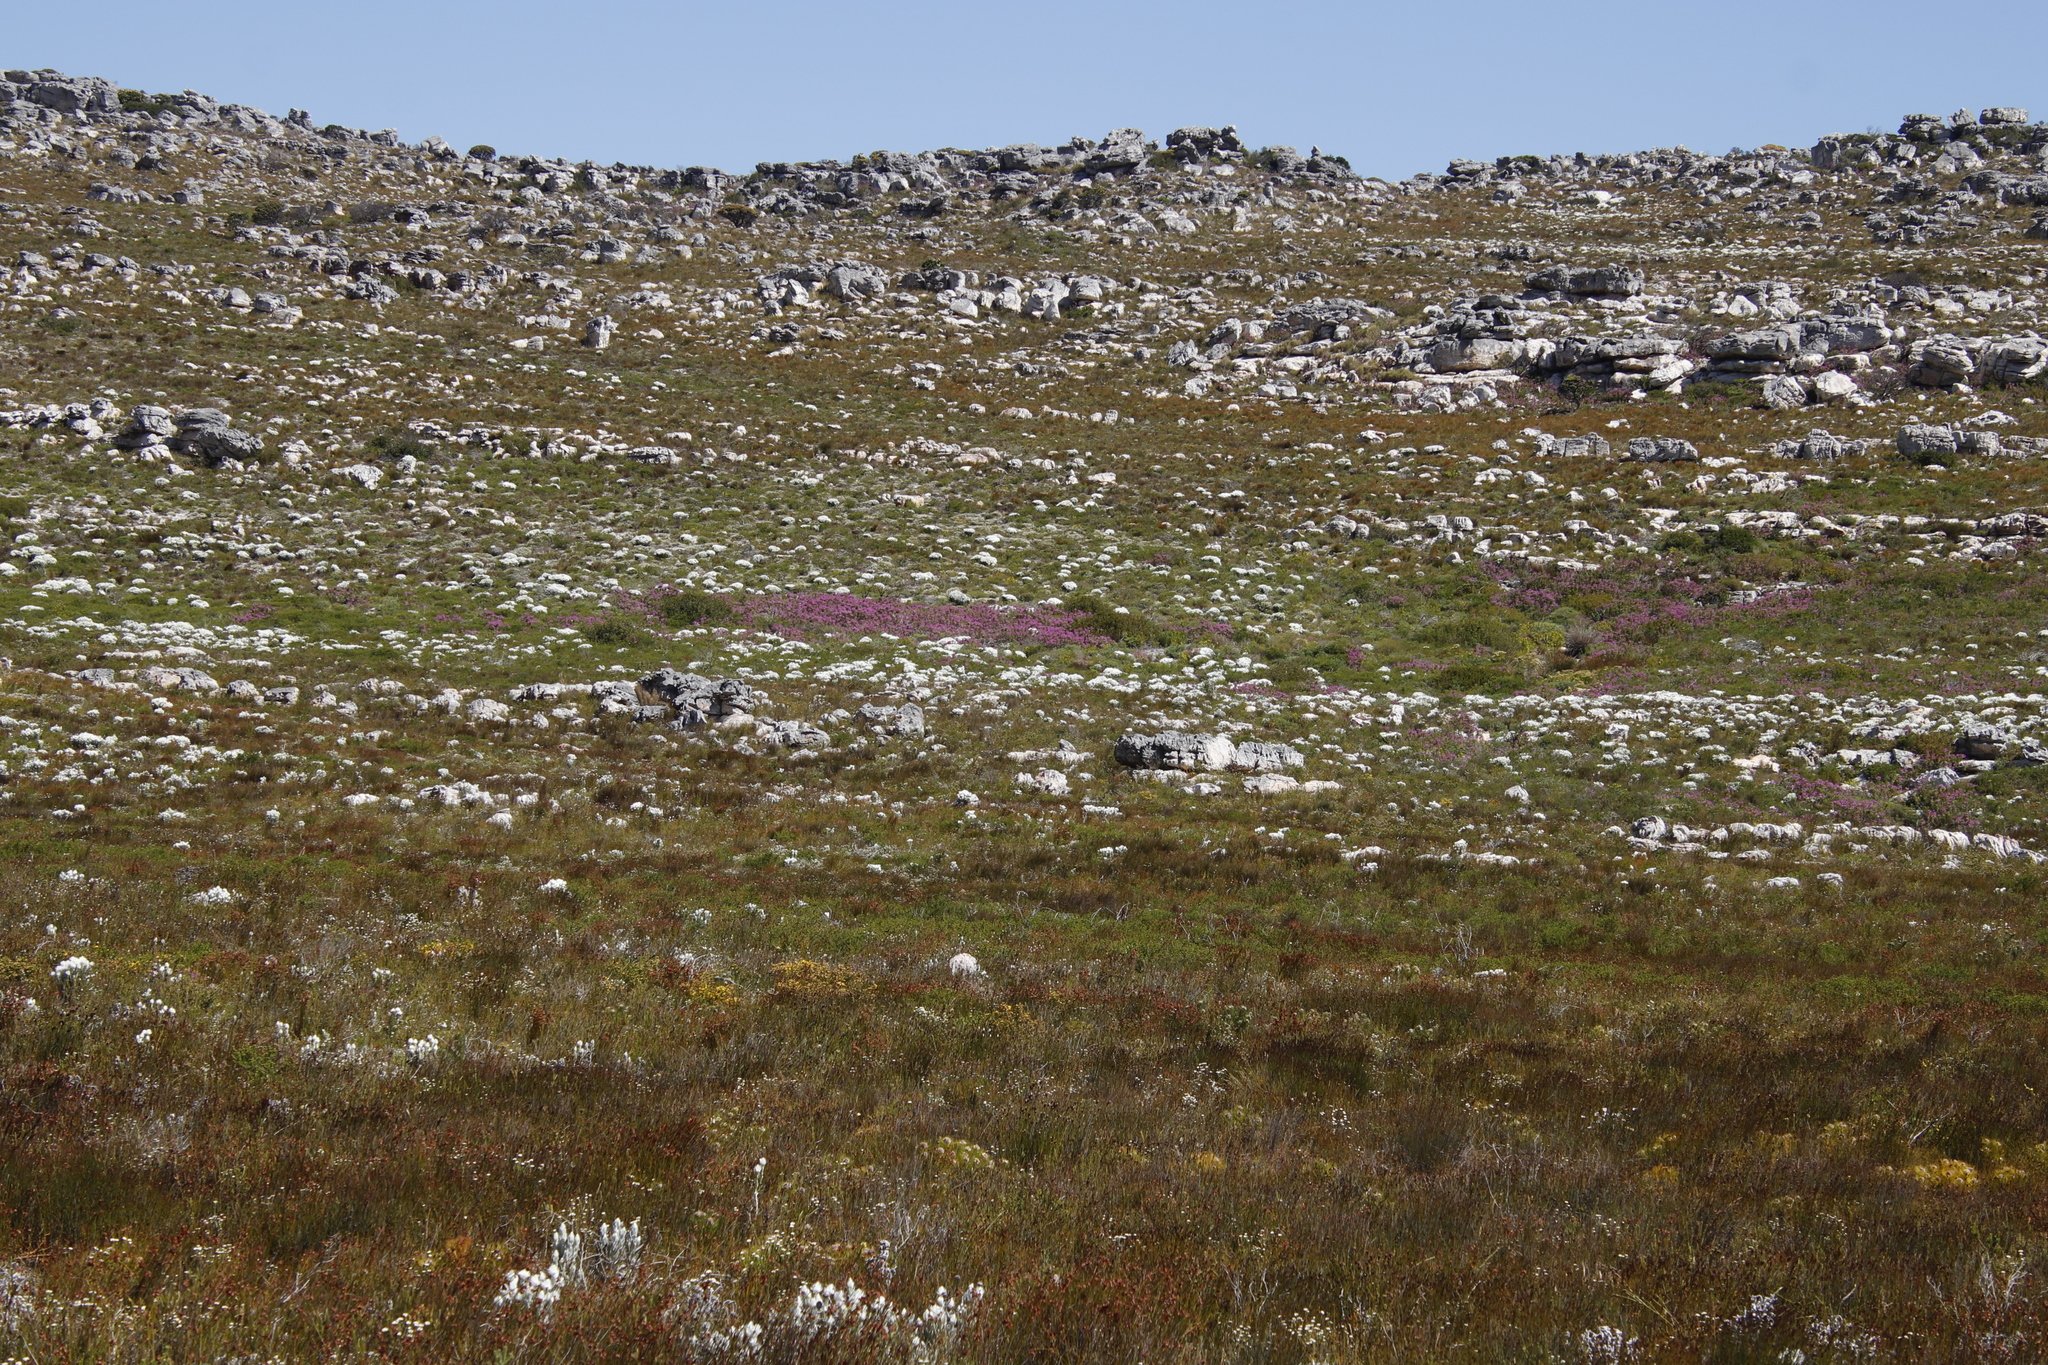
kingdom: Plantae
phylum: Tracheophyta
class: Magnoliopsida
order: Geraniales
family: Geraniaceae
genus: Pelargonium
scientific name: Pelargonium cucullatum
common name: Tree pelargonium
